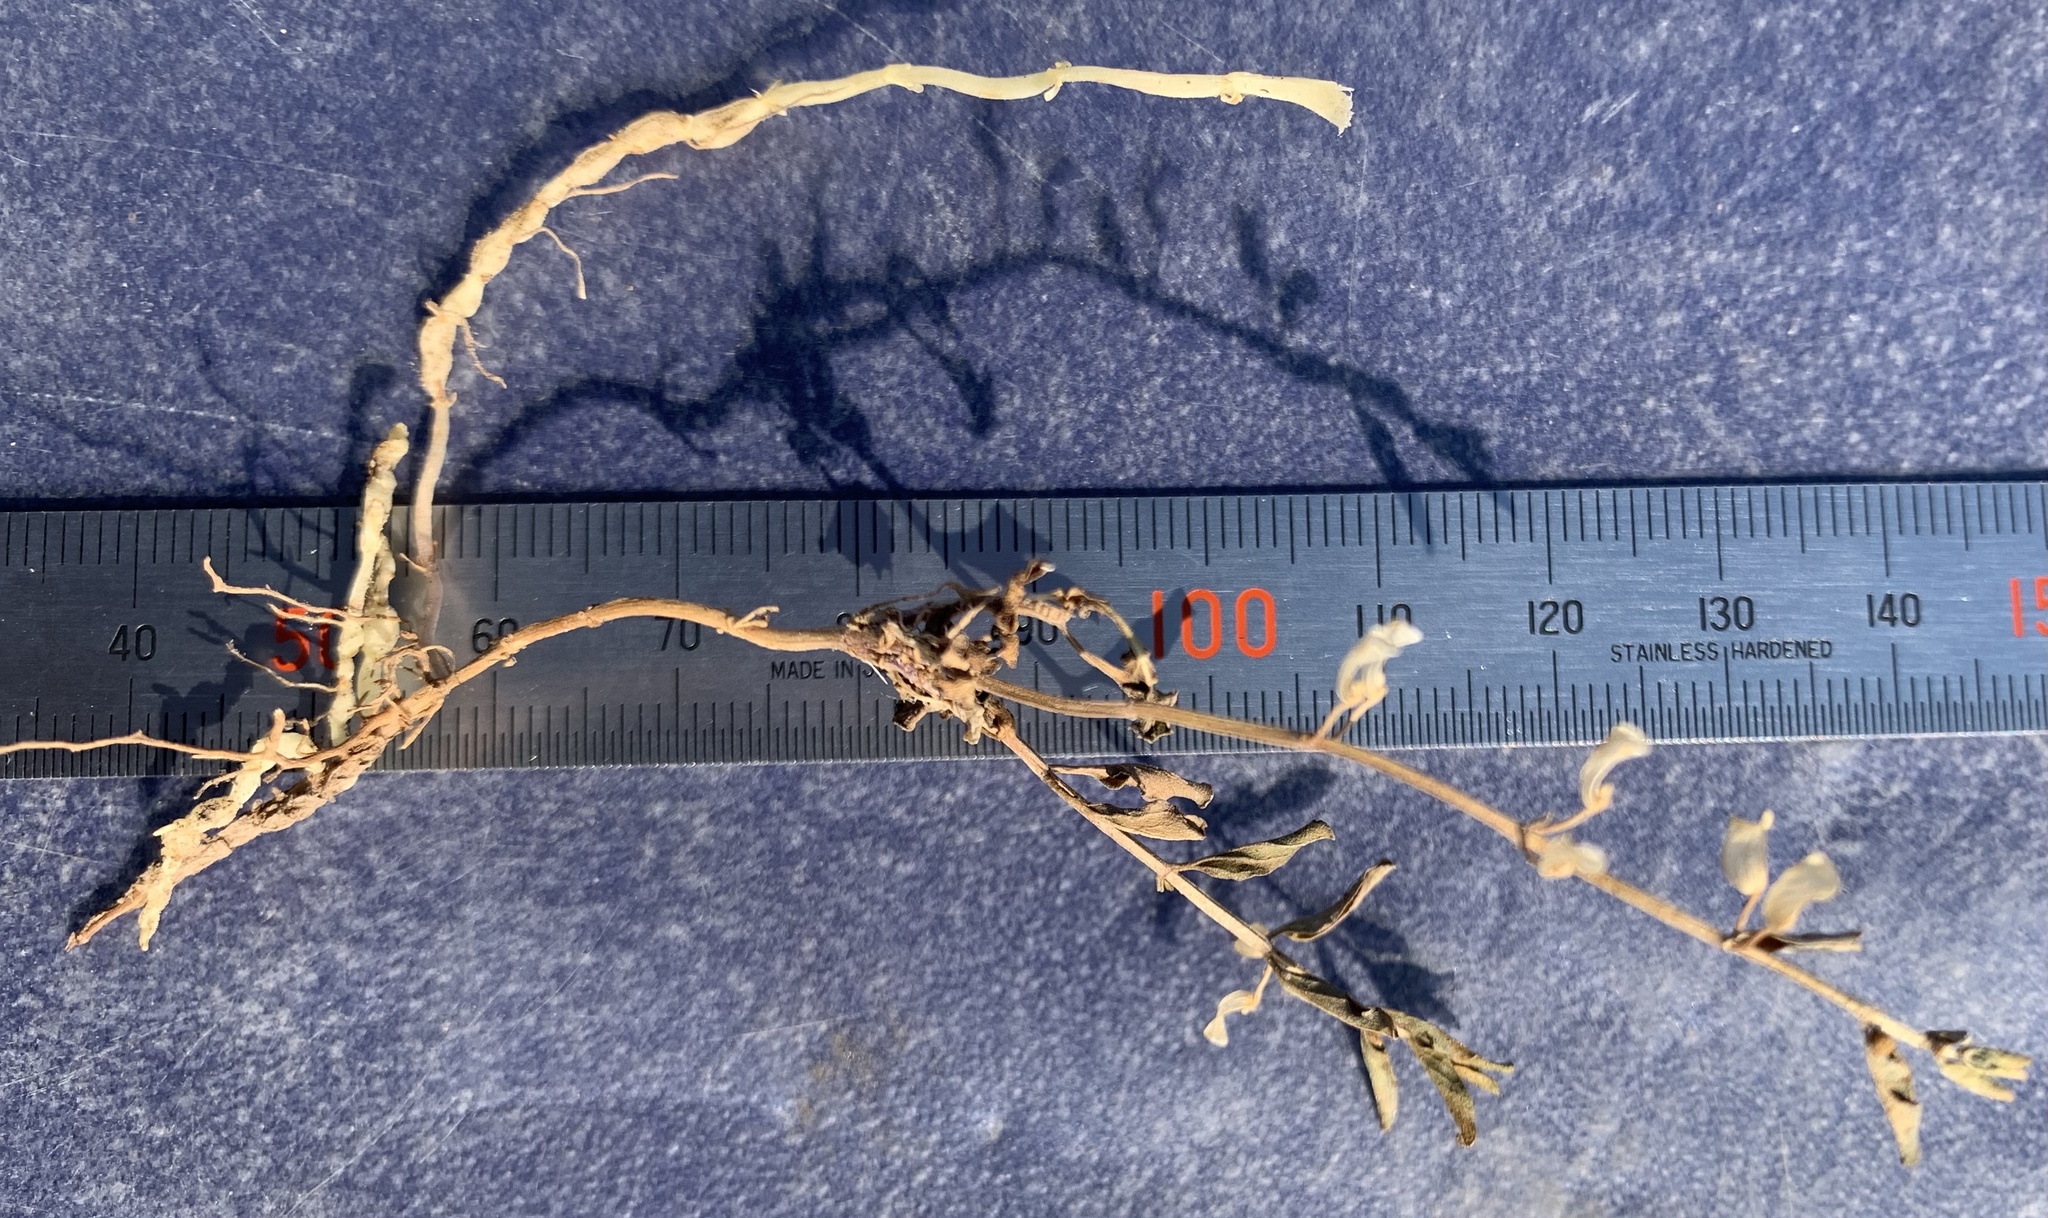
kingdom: Plantae
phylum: Tracheophyta
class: Magnoliopsida
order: Lamiales
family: Lamiaceae
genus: Scutellaria
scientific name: Scutellaria angustifolia
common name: Narrow-leaved skullcap
